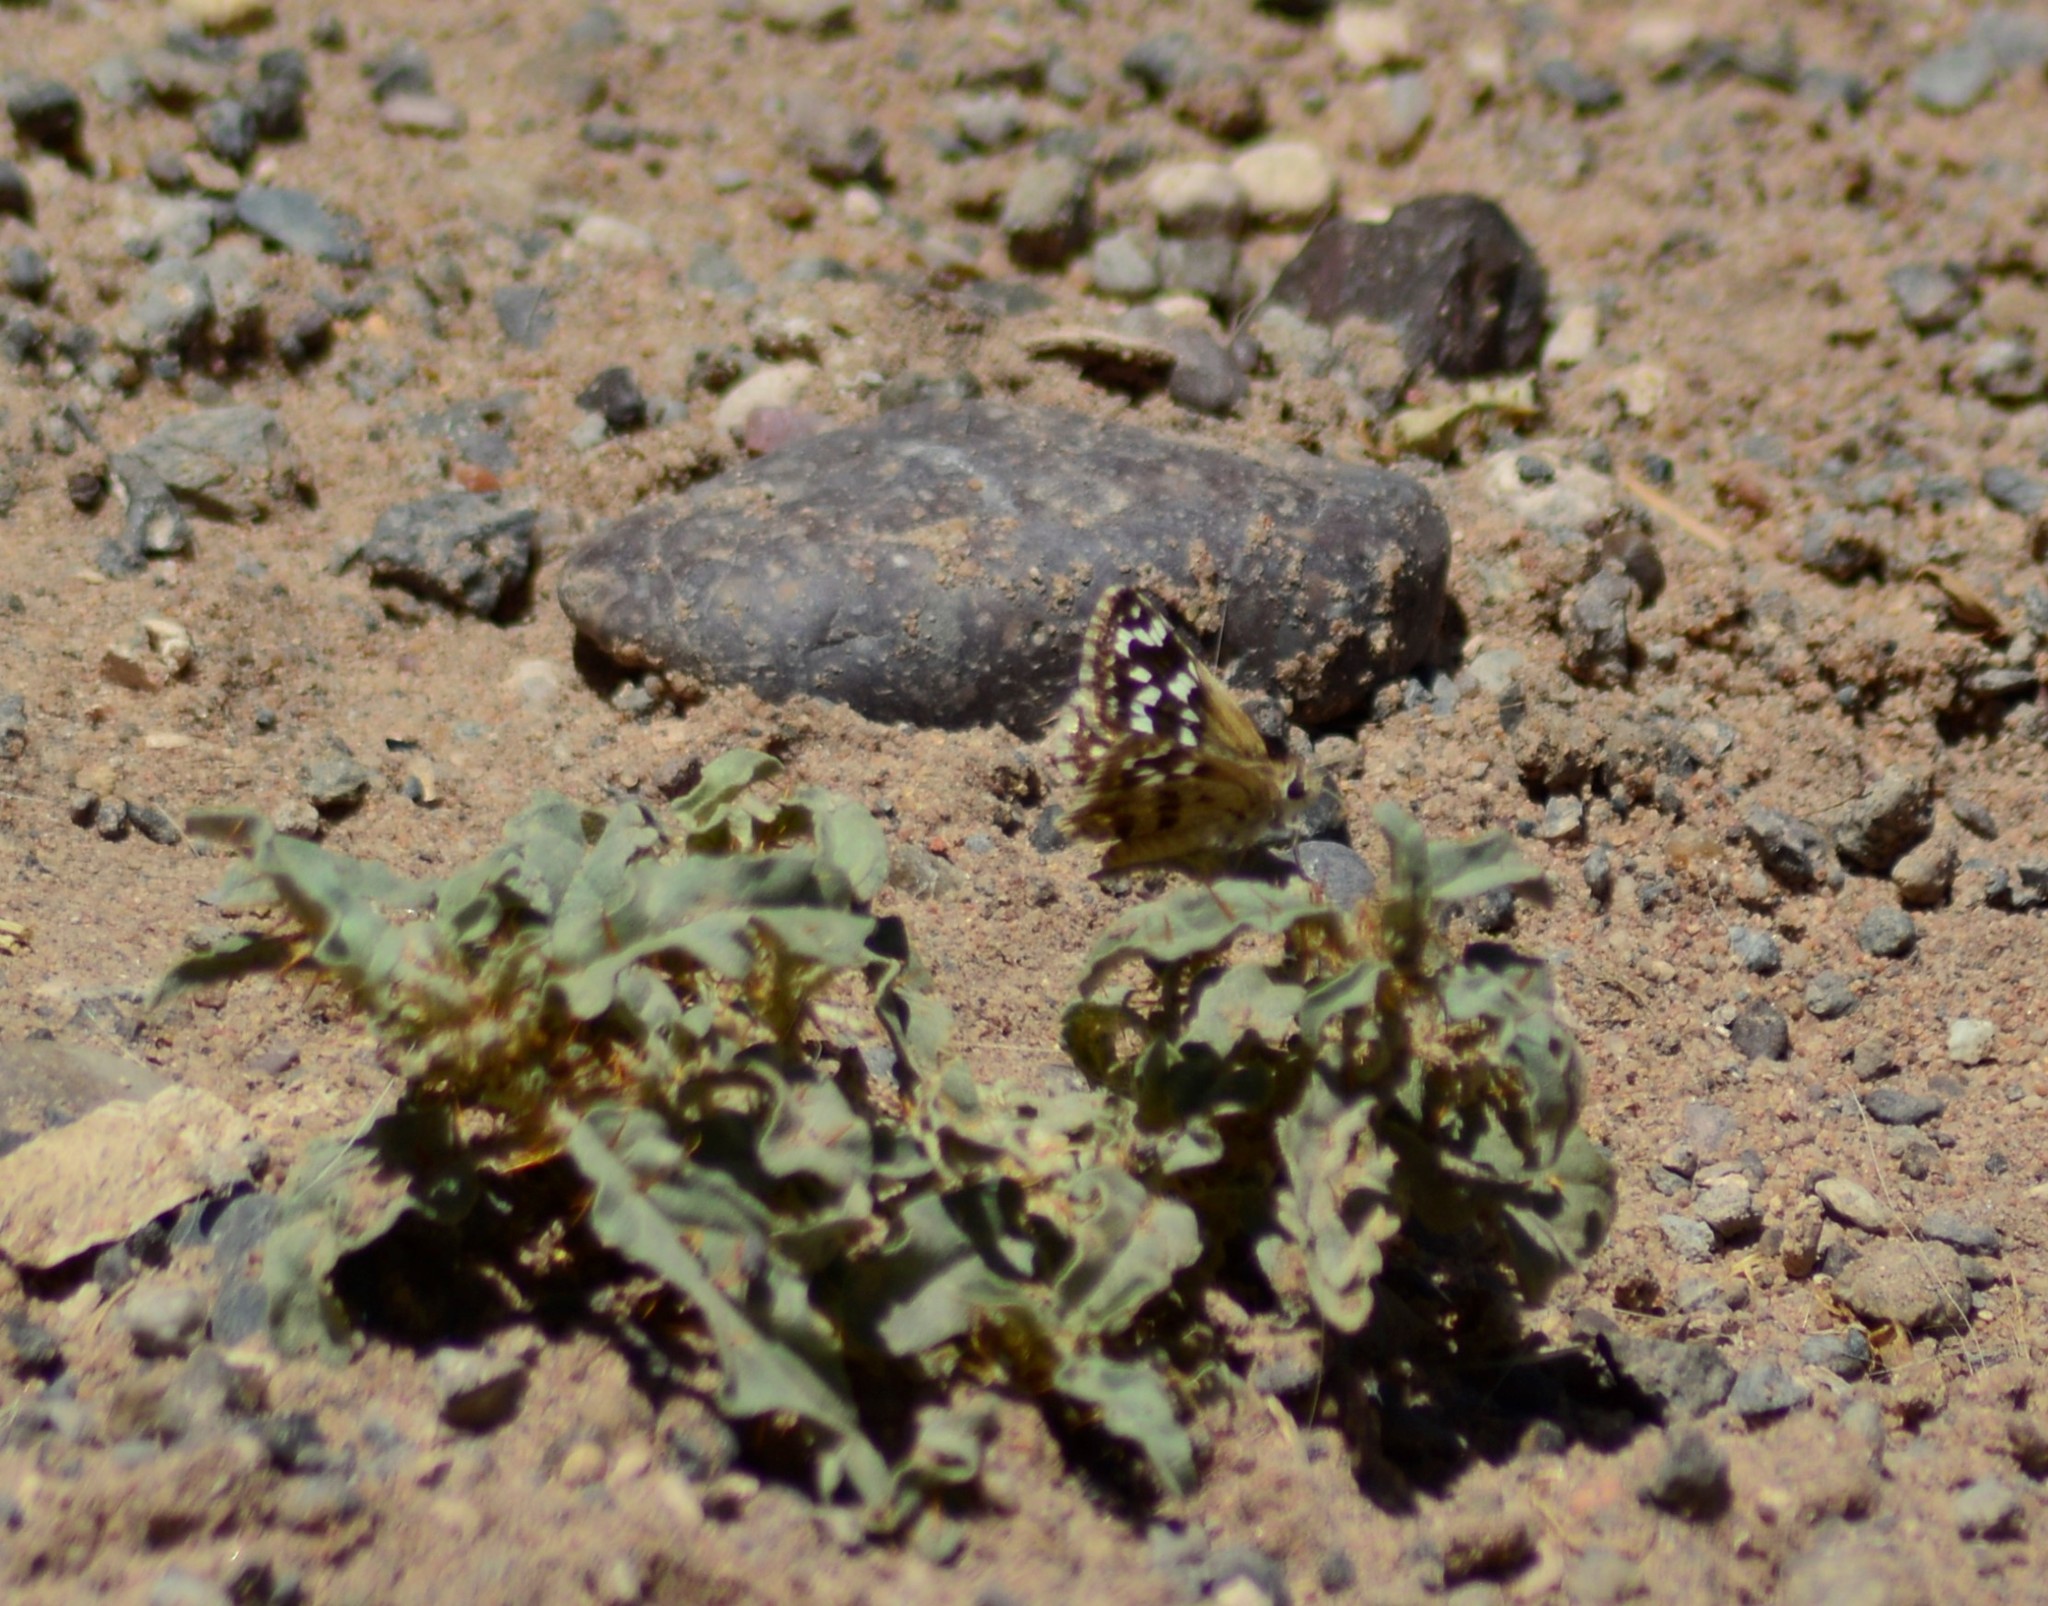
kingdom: Animalia
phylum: Arthropoda
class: Insecta
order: Lepidoptera
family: Hesperiidae
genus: Chirgus
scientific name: Chirgus fides
